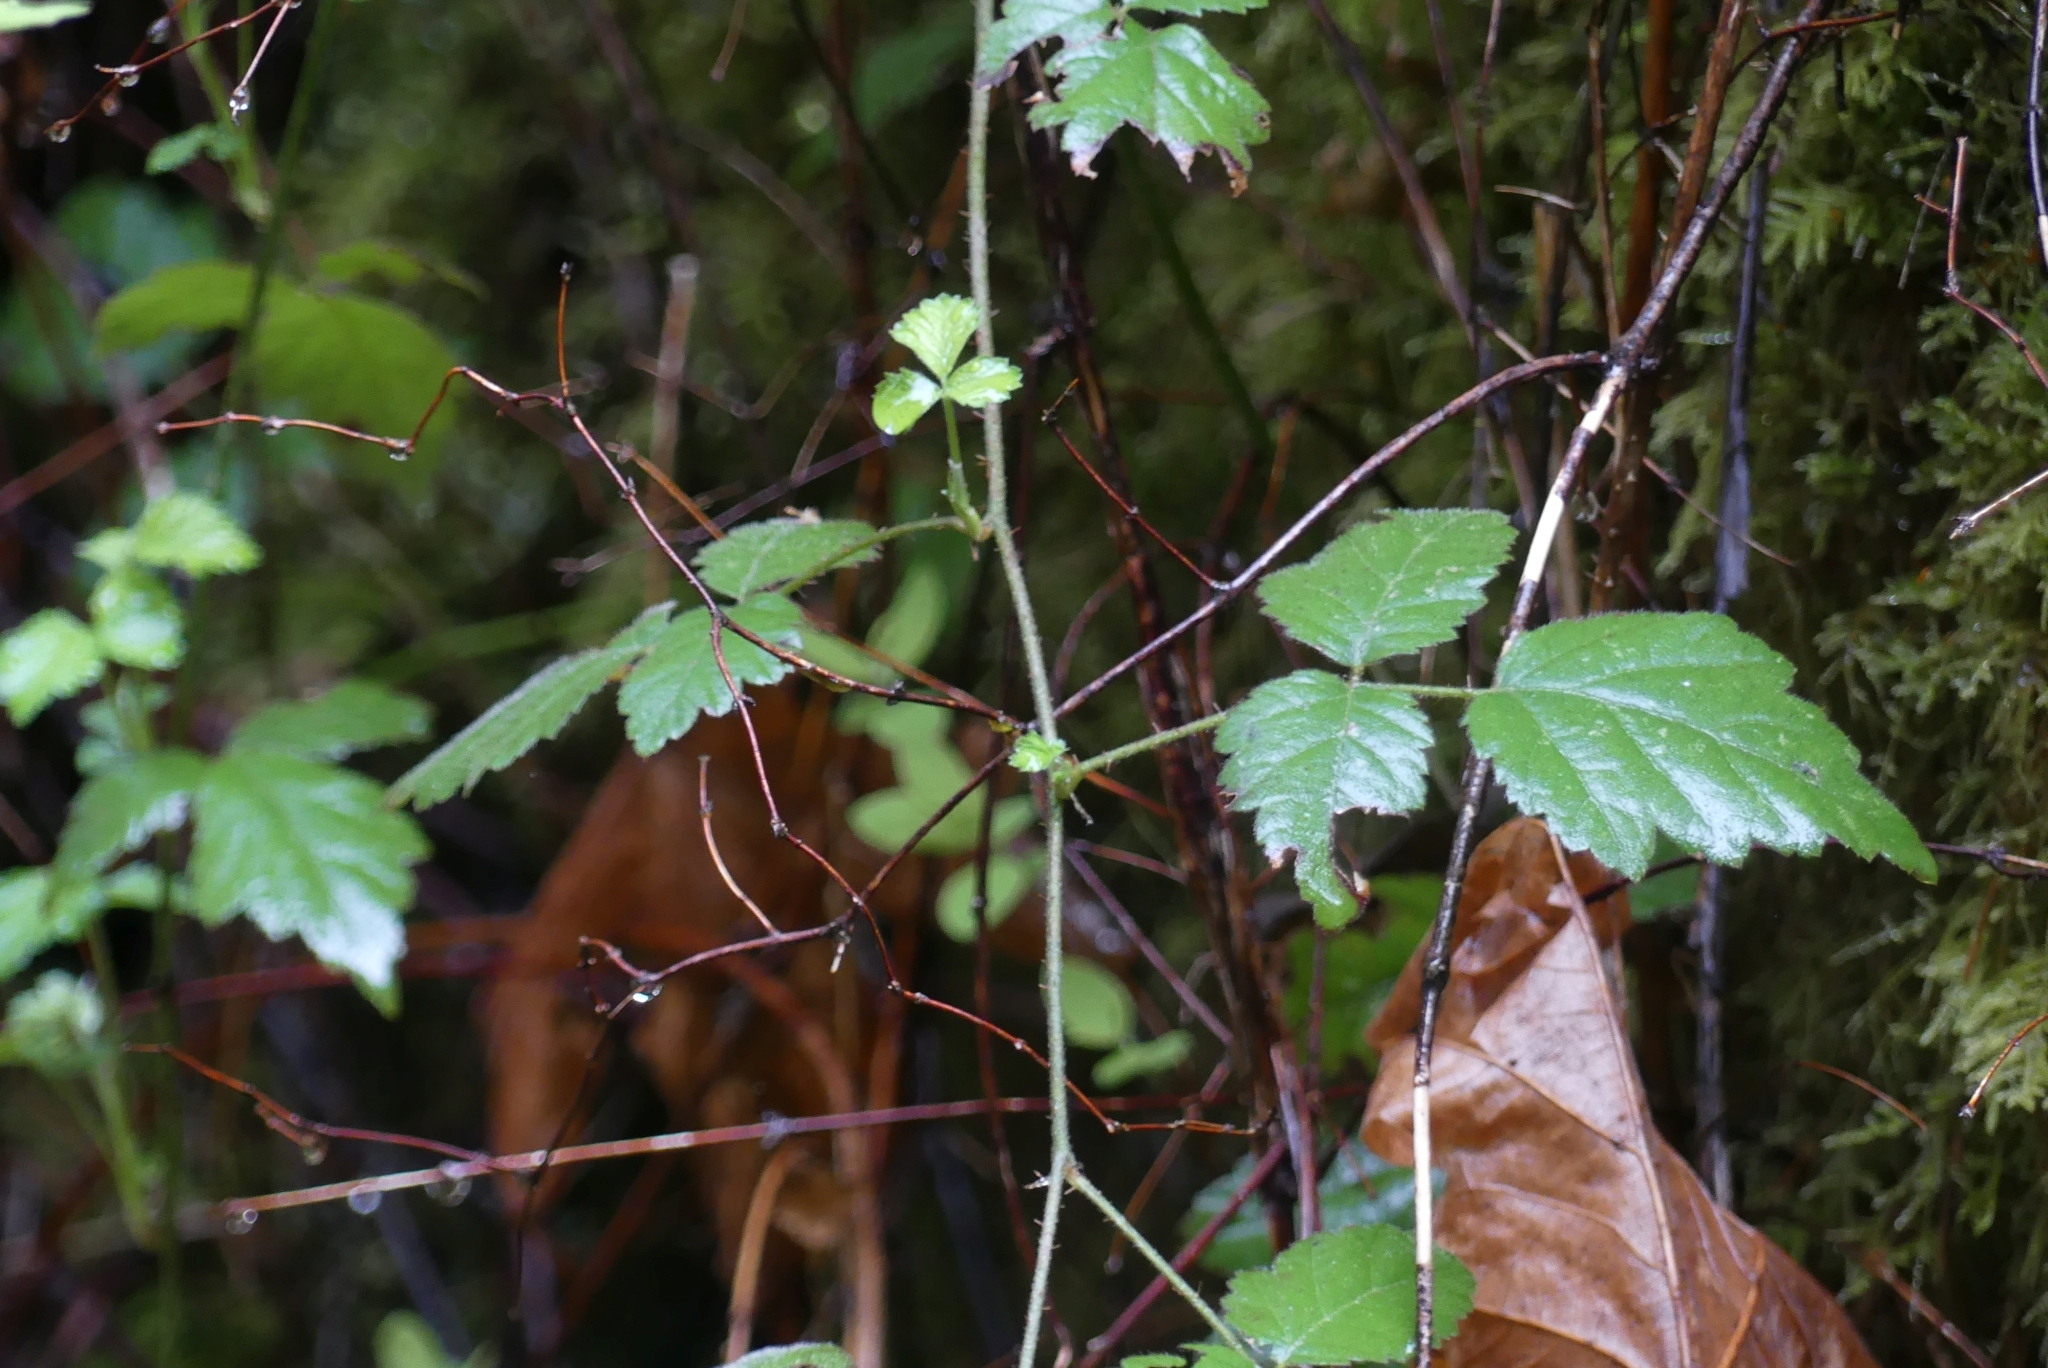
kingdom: Plantae
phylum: Tracheophyta
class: Magnoliopsida
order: Rosales
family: Rosaceae
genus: Rubus
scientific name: Rubus ursinus
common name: Pacific blackberry
